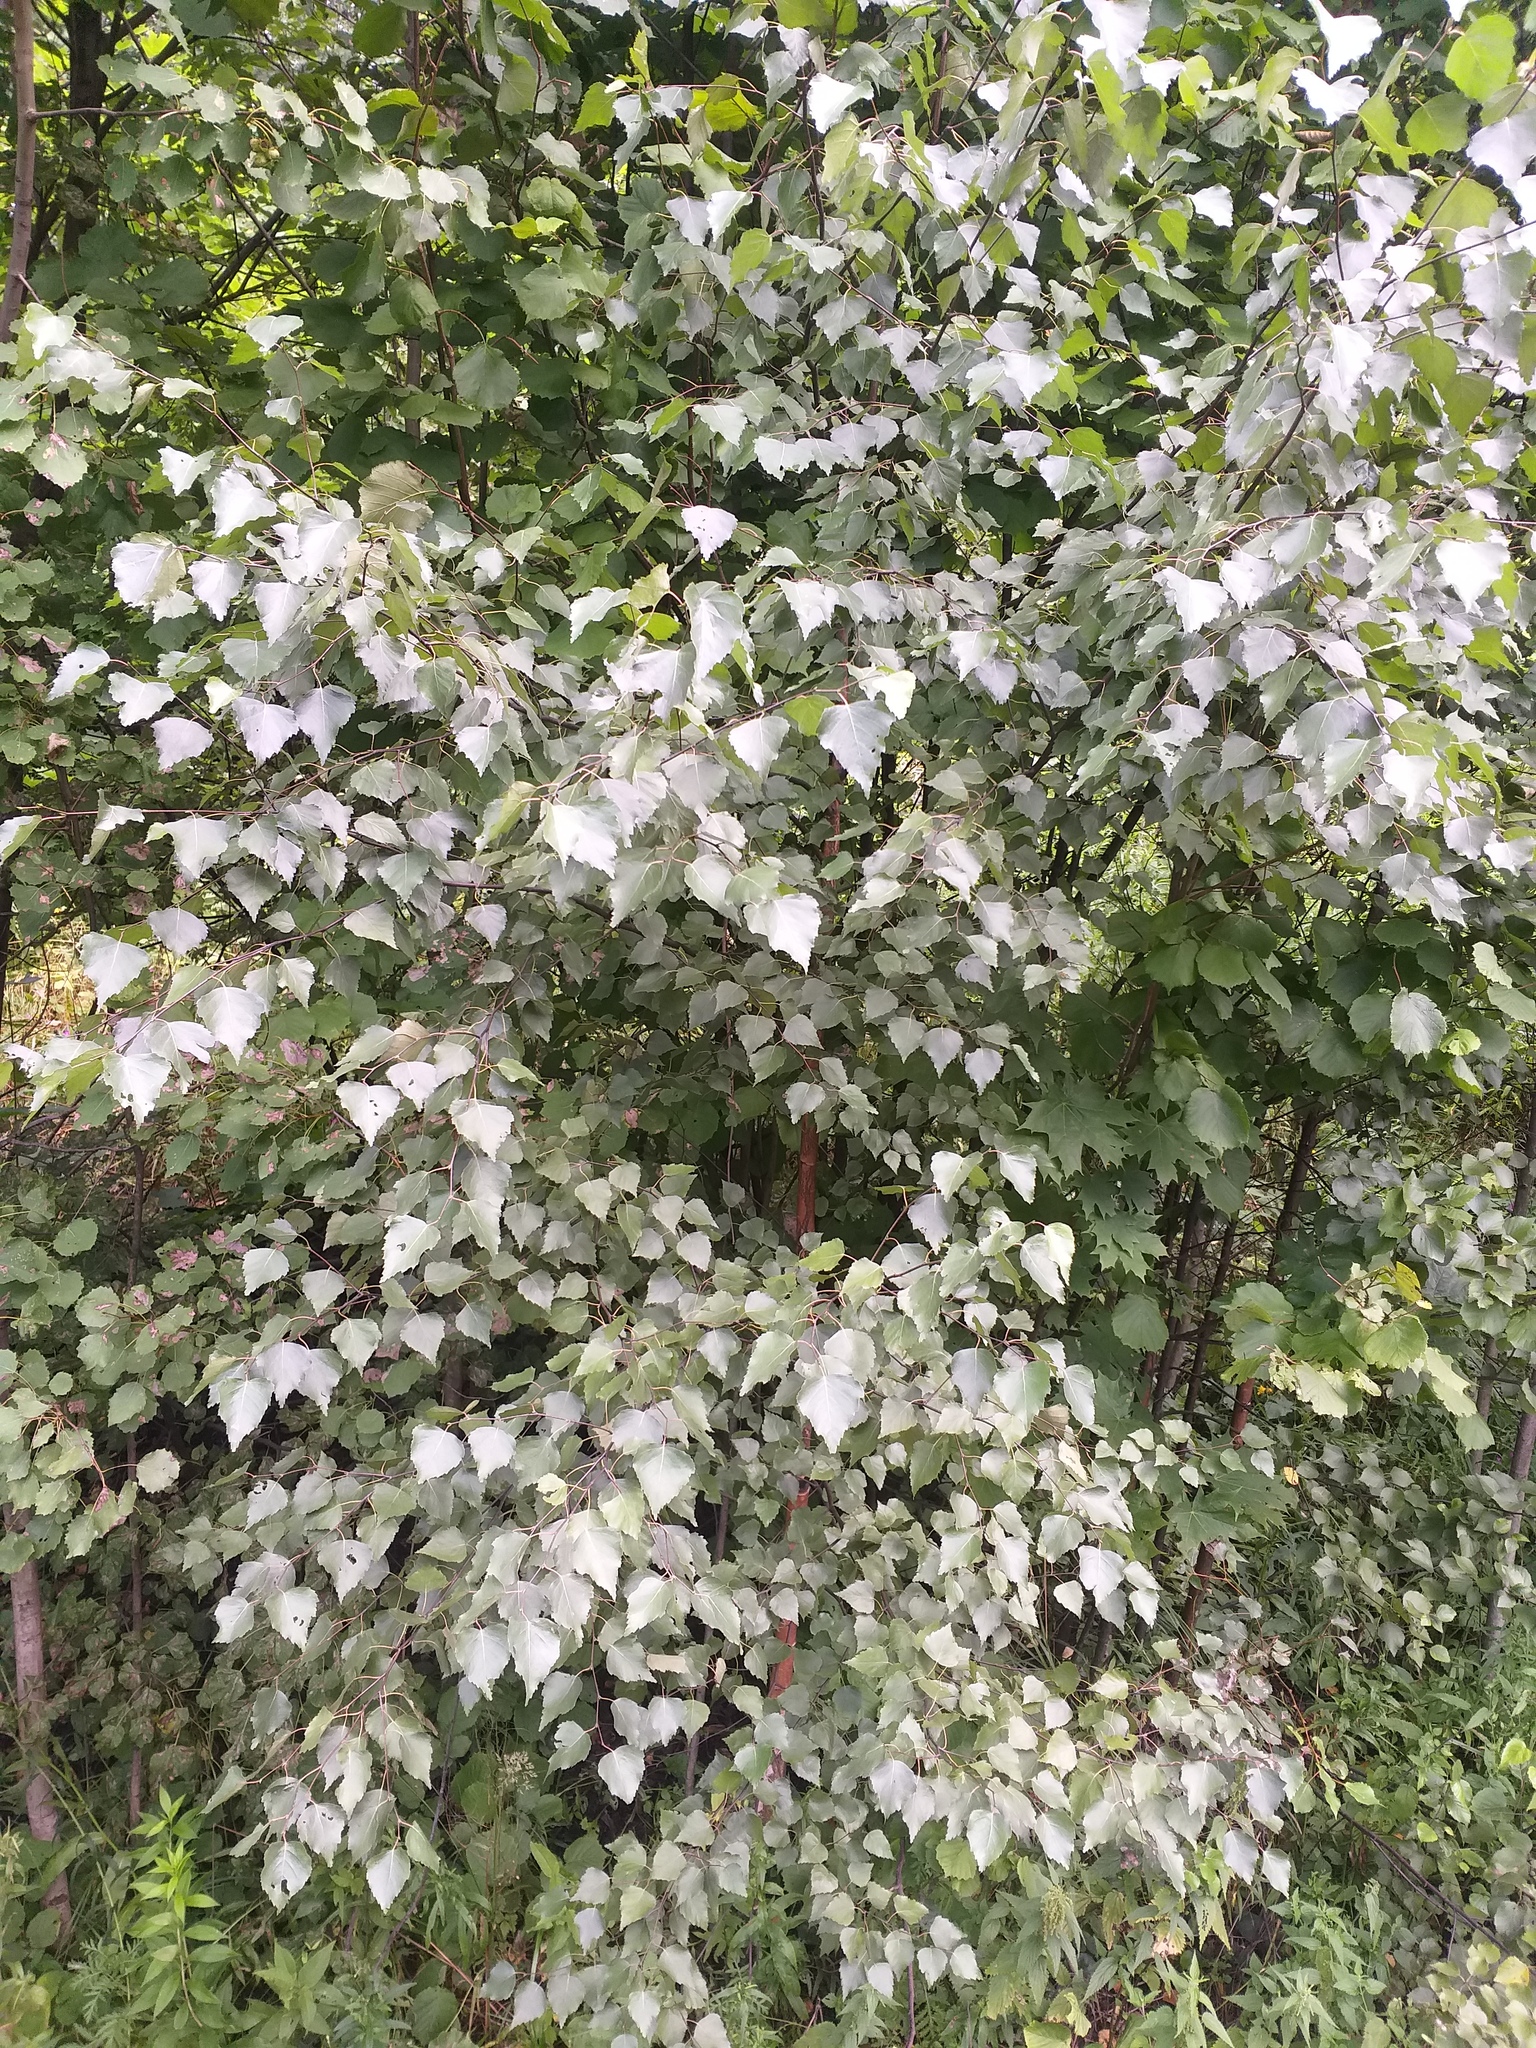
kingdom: Plantae
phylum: Tracheophyta
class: Magnoliopsida
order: Fagales
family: Betulaceae
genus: Betula
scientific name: Betula pendula
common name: Silver birch
